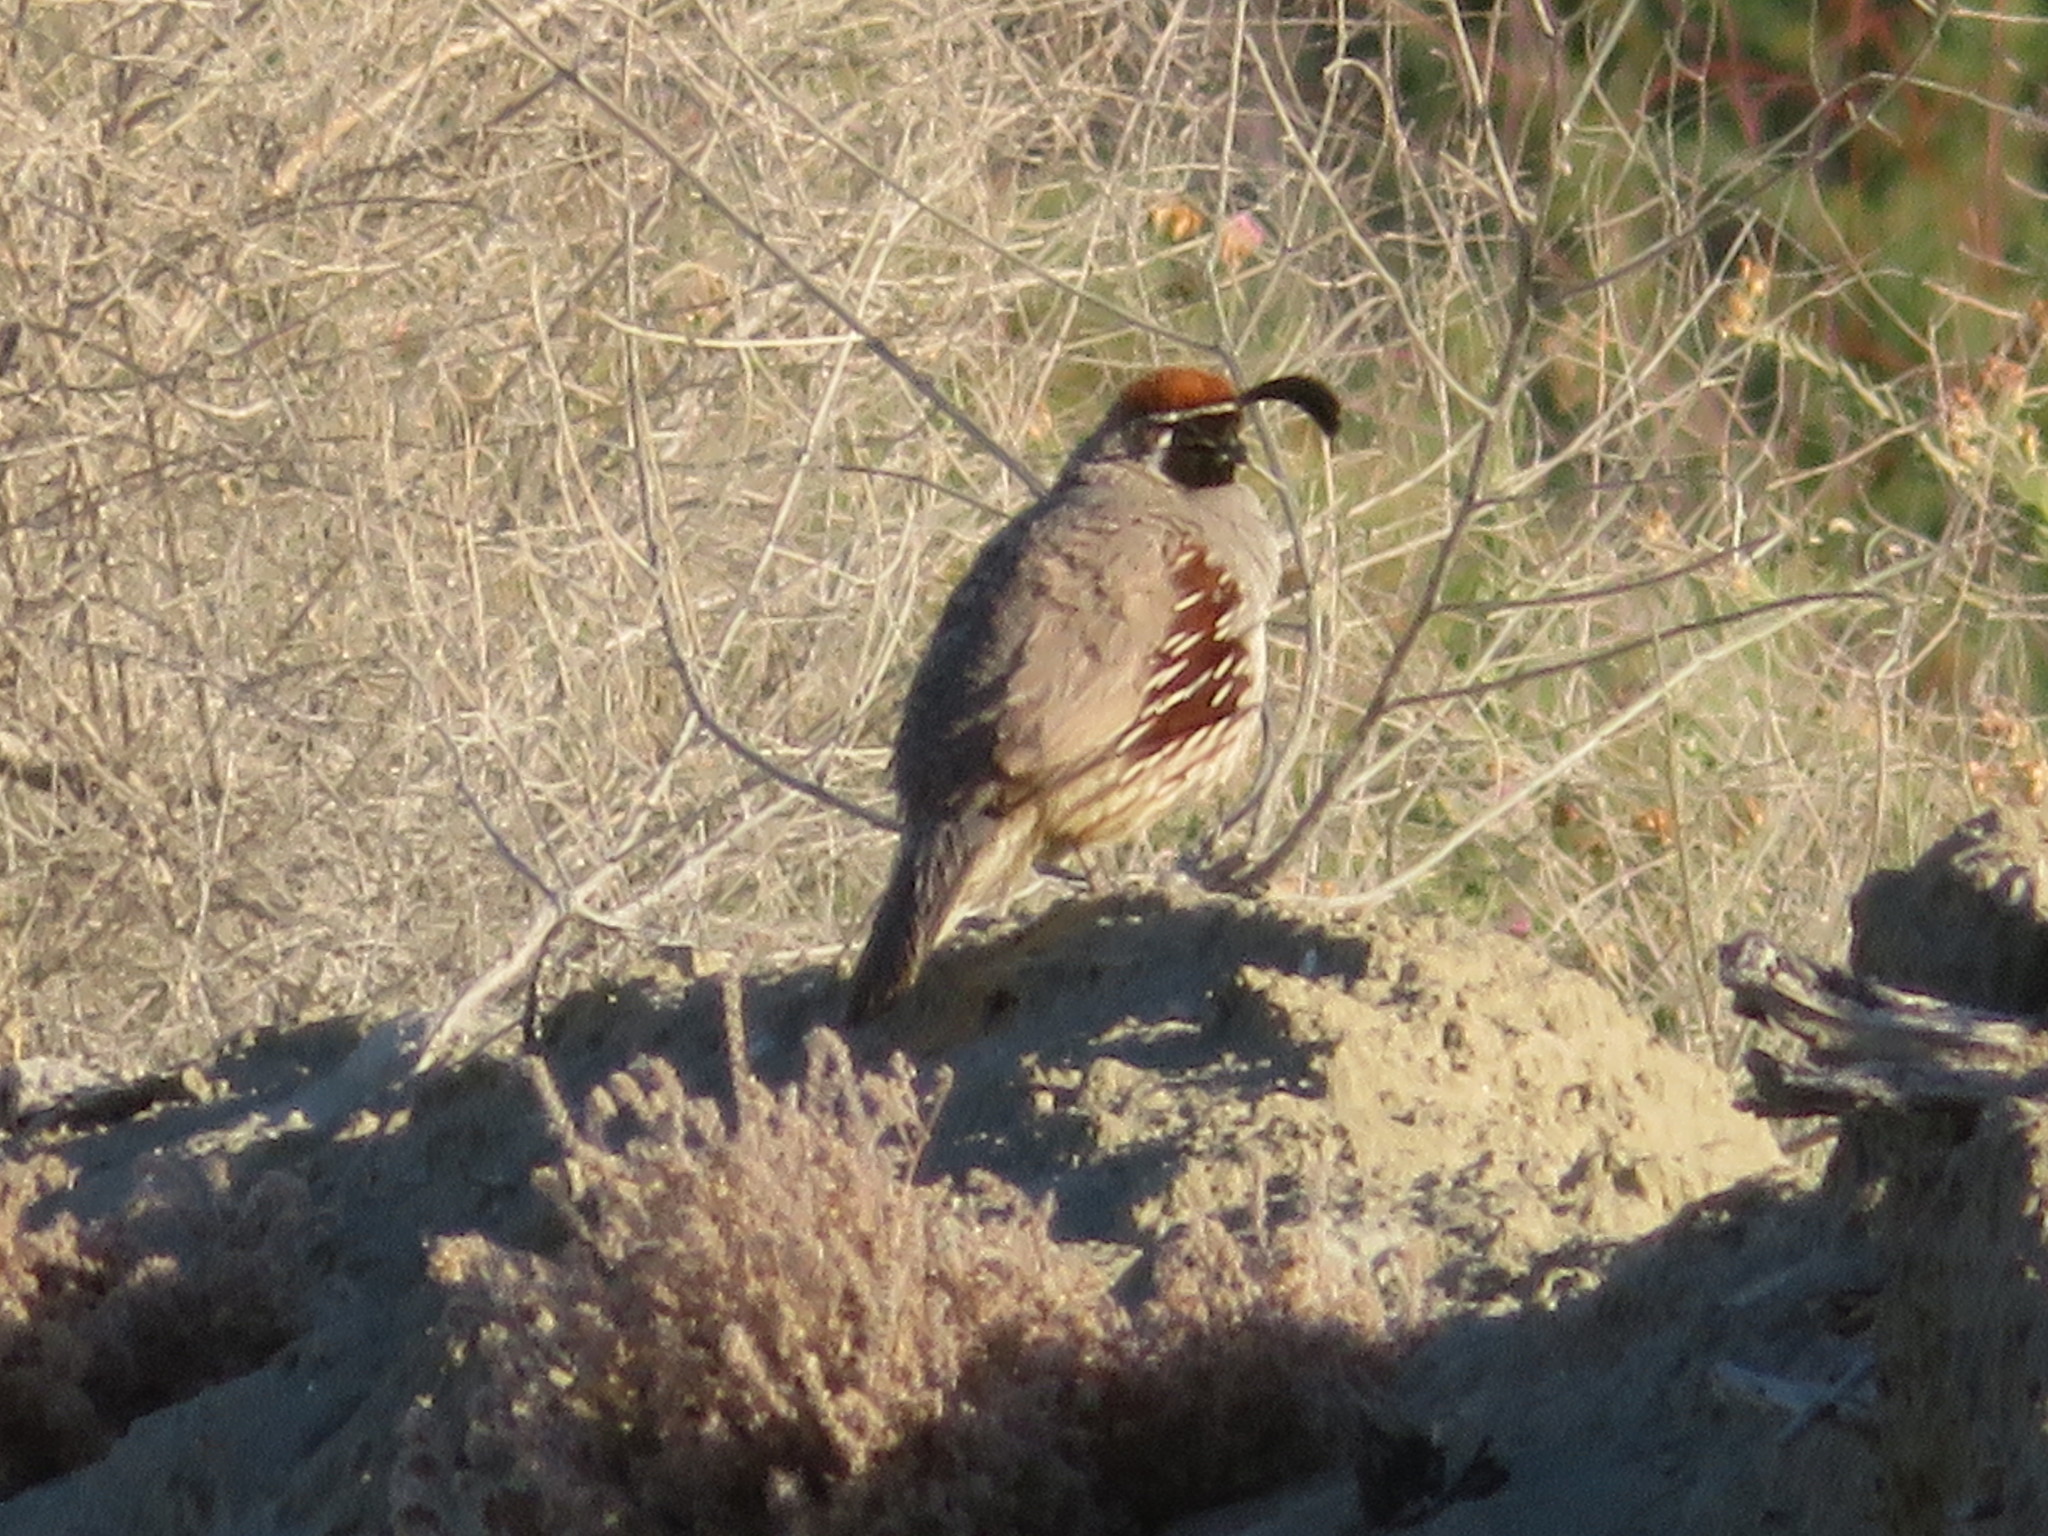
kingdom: Animalia
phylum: Chordata
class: Aves
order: Galliformes
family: Odontophoridae
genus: Callipepla
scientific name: Callipepla gambelii
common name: Gambel's quail
